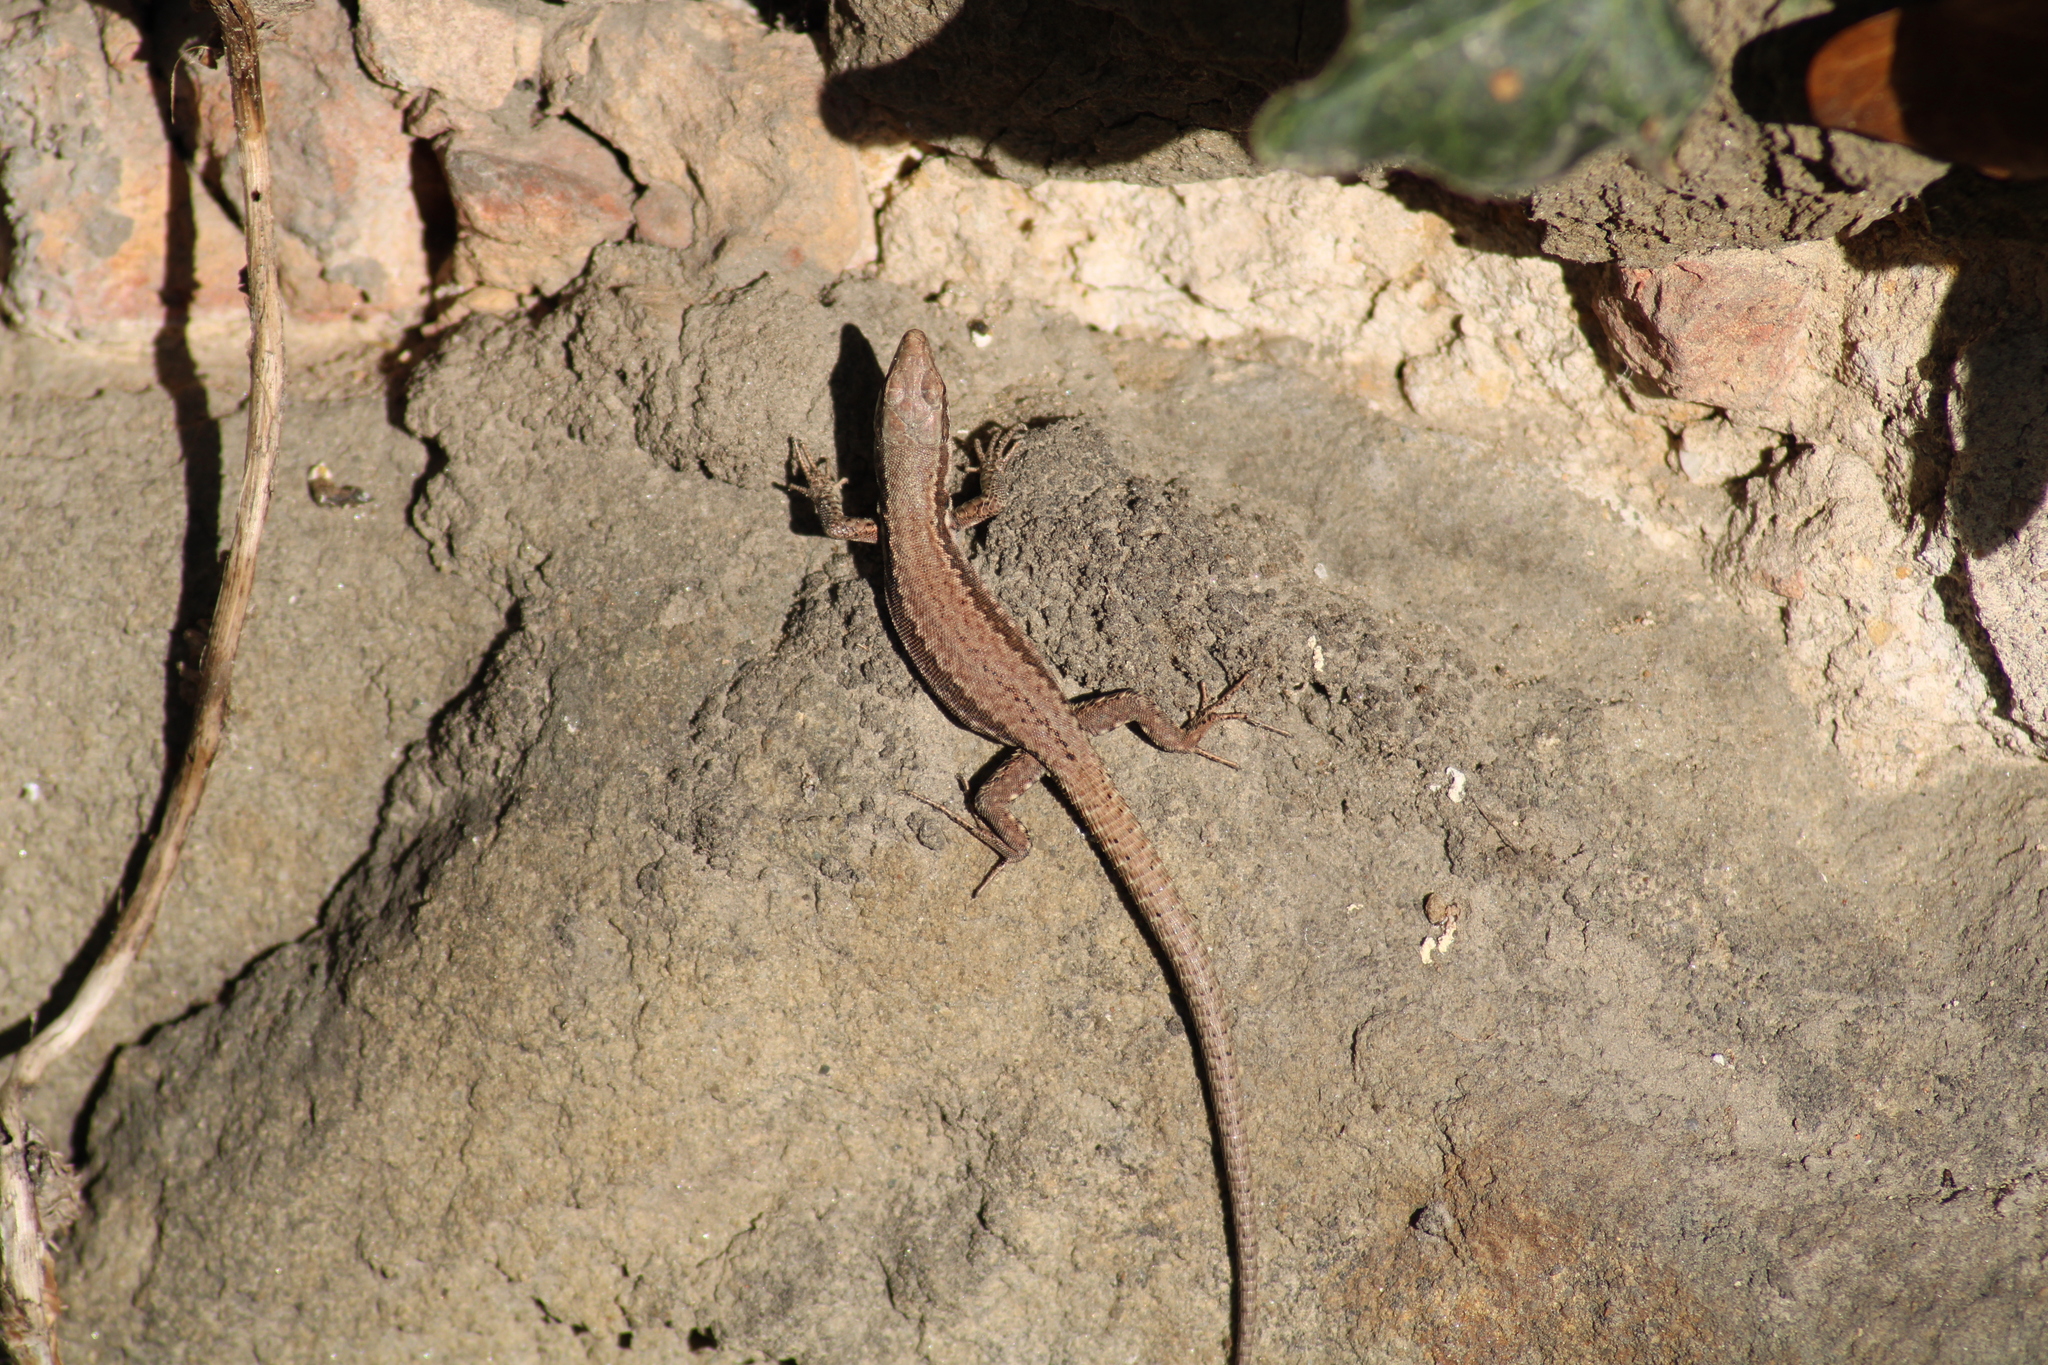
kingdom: Animalia
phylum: Chordata
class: Squamata
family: Lacertidae
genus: Podarcis
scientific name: Podarcis muralis
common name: Common wall lizard
